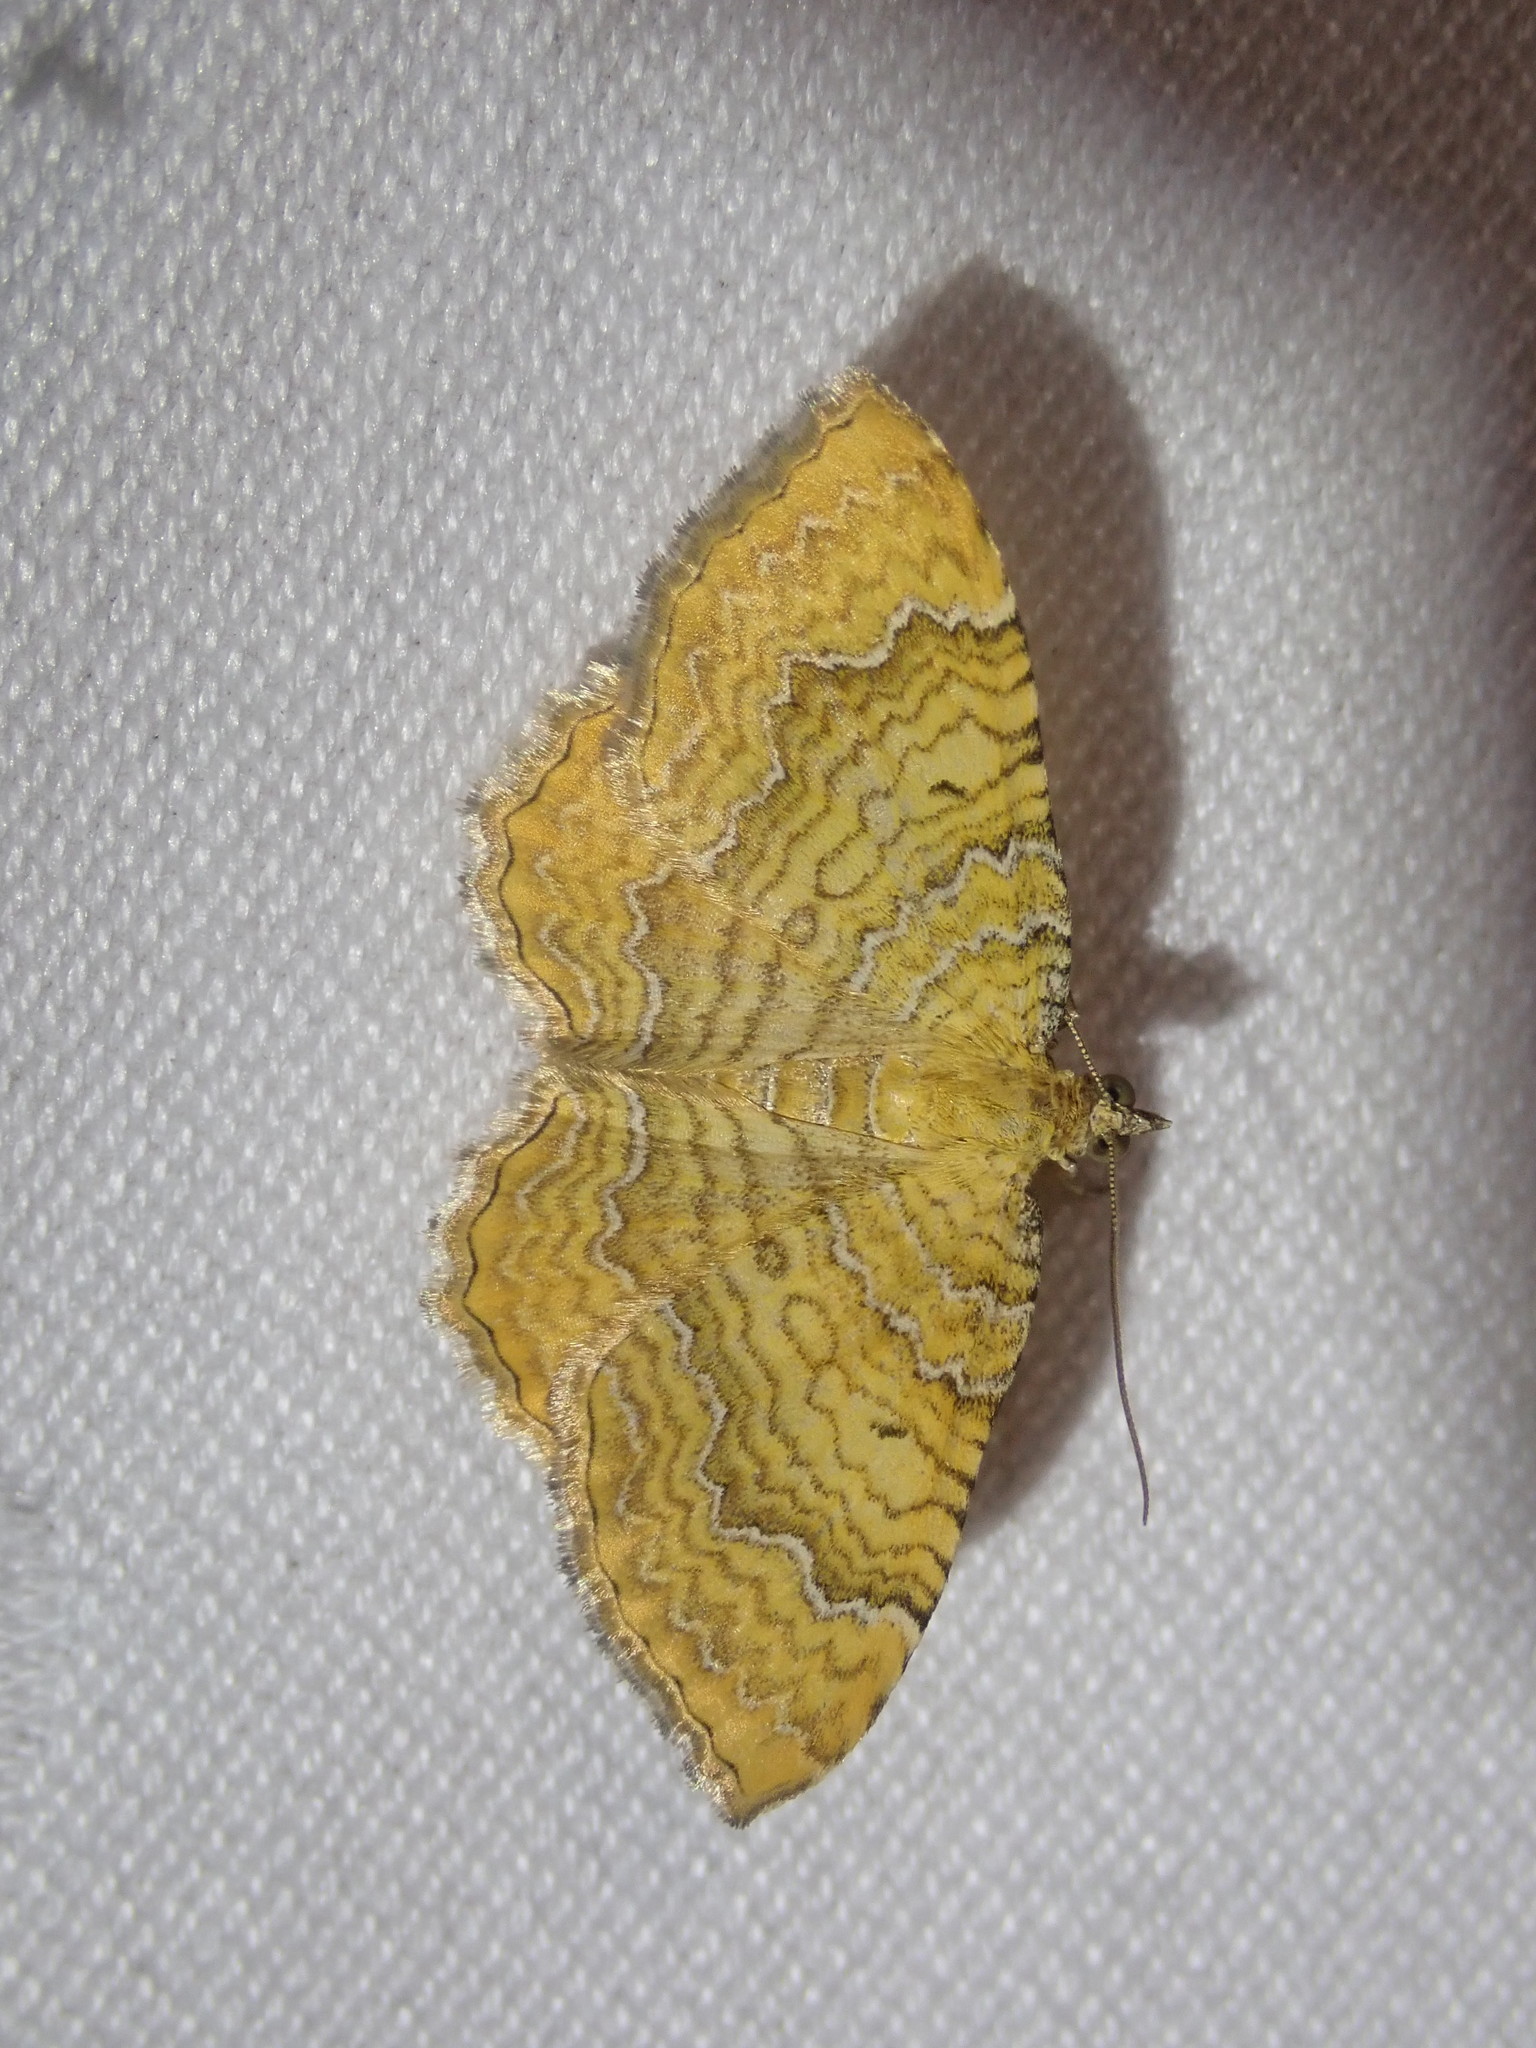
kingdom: Animalia
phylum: Arthropoda
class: Insecta
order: Lepidoptera
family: Geometridae
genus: Camptogramma
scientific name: Camptogramma bilineata
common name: Yellow shell
